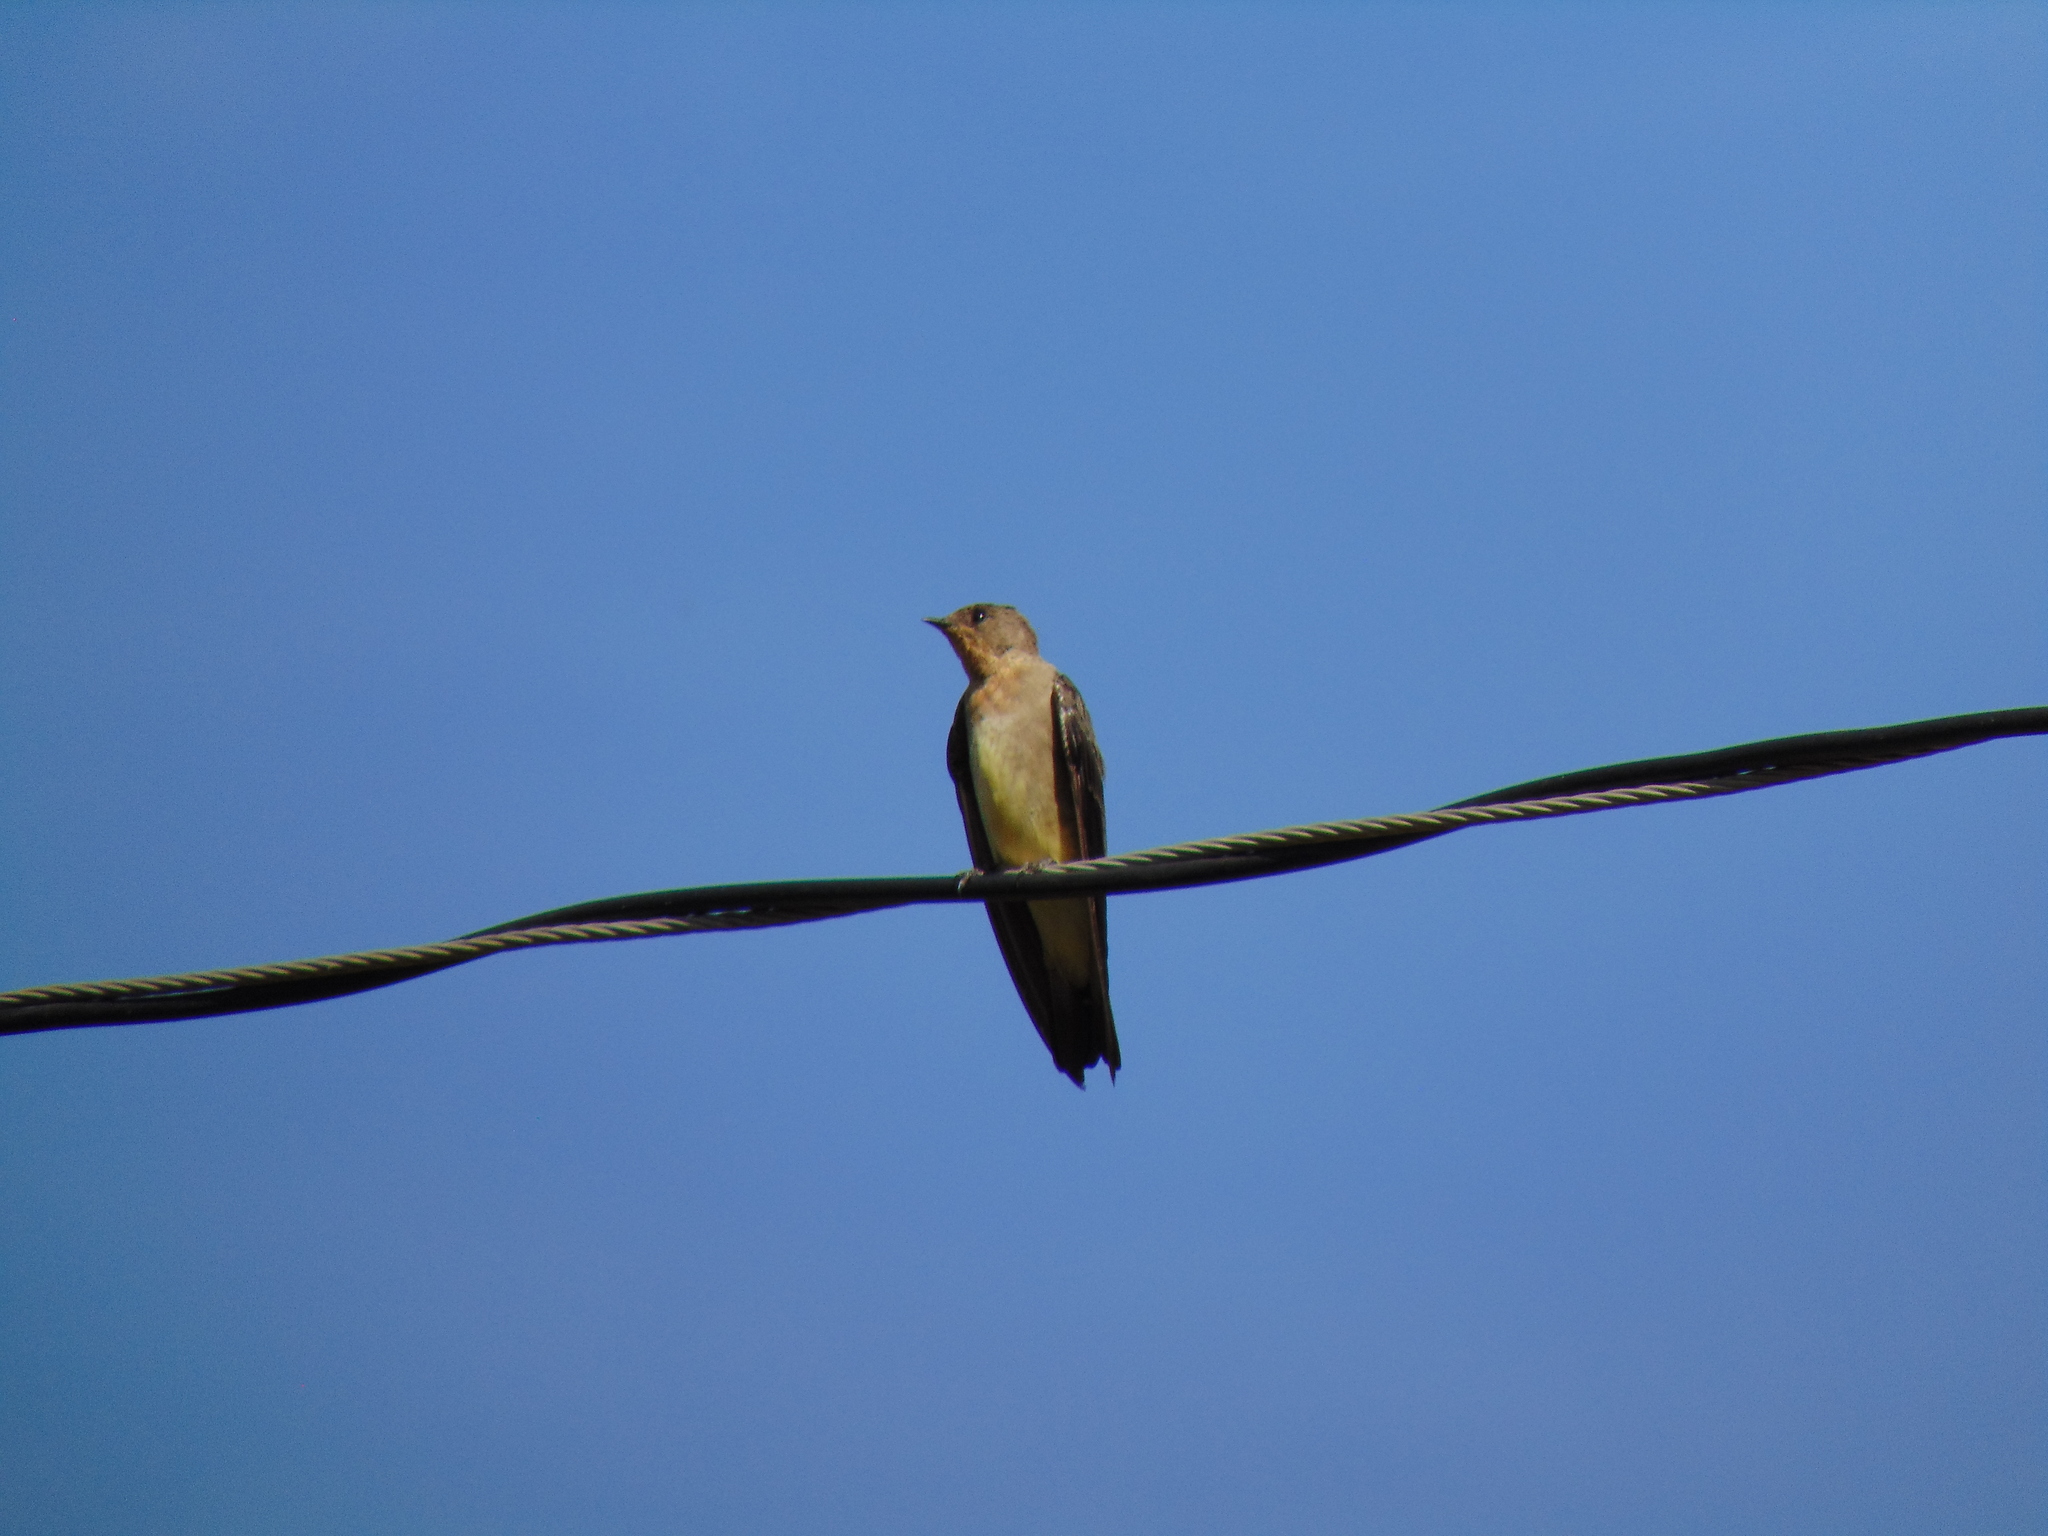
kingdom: Animalia
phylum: Chordata
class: Aves
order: Passeriformes
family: Hirundinidae
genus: Stelgidopteryx
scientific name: Stelgidopteryx ruficollis
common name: Southern rough-winged swallow
